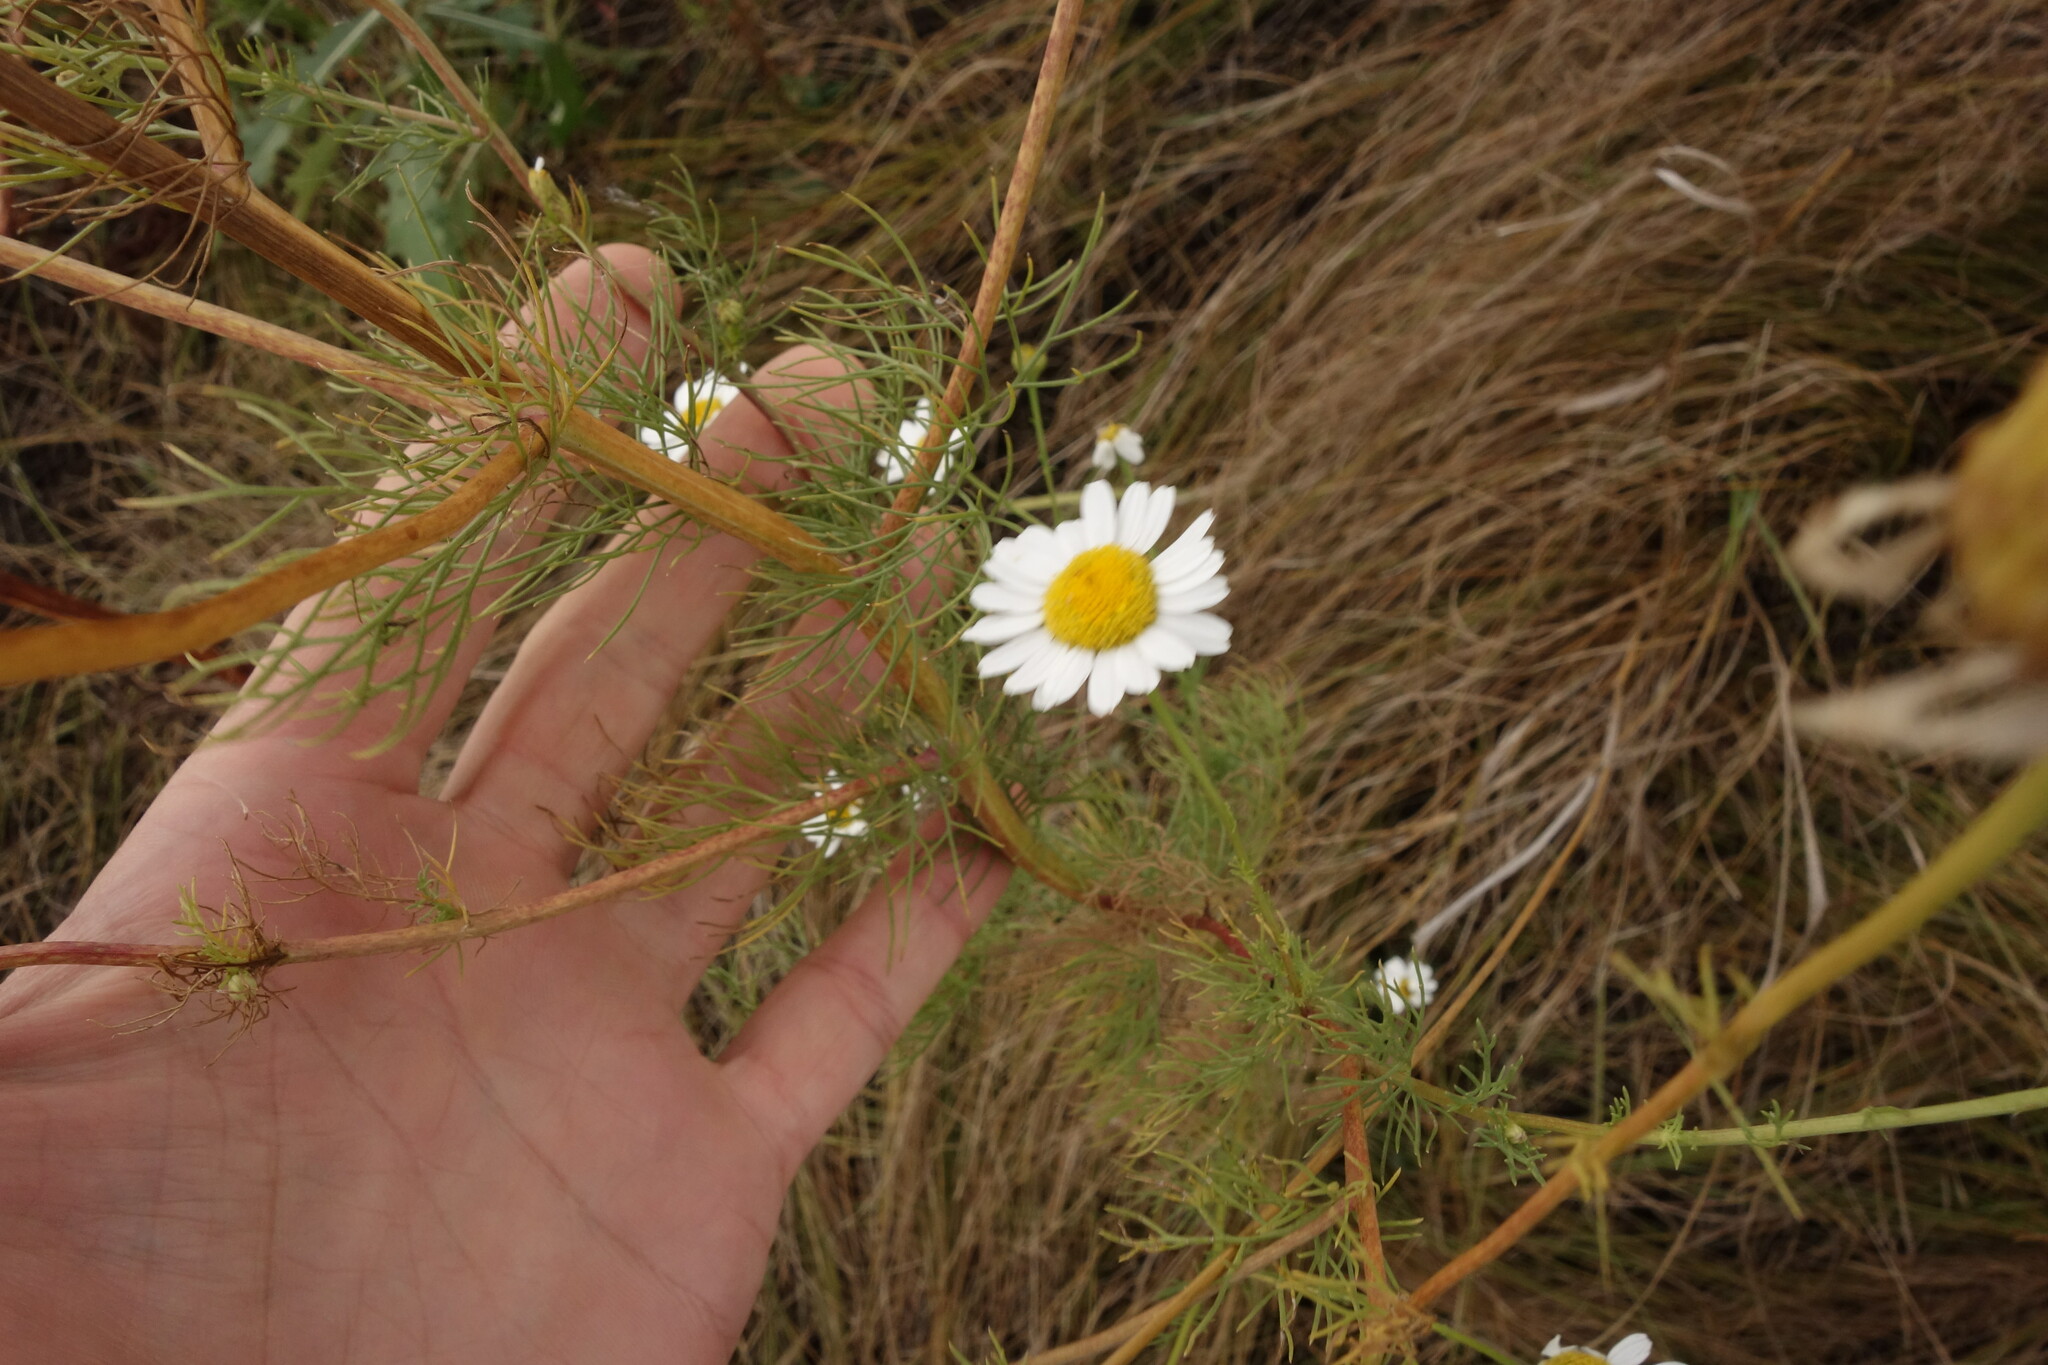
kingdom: Plantae
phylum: Tracheophyta
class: Magnoliopsida
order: Asterales
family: Asteraceae
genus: Tripleurospermum
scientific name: Tripleurospermum inodorum
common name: Scentless mayweed
